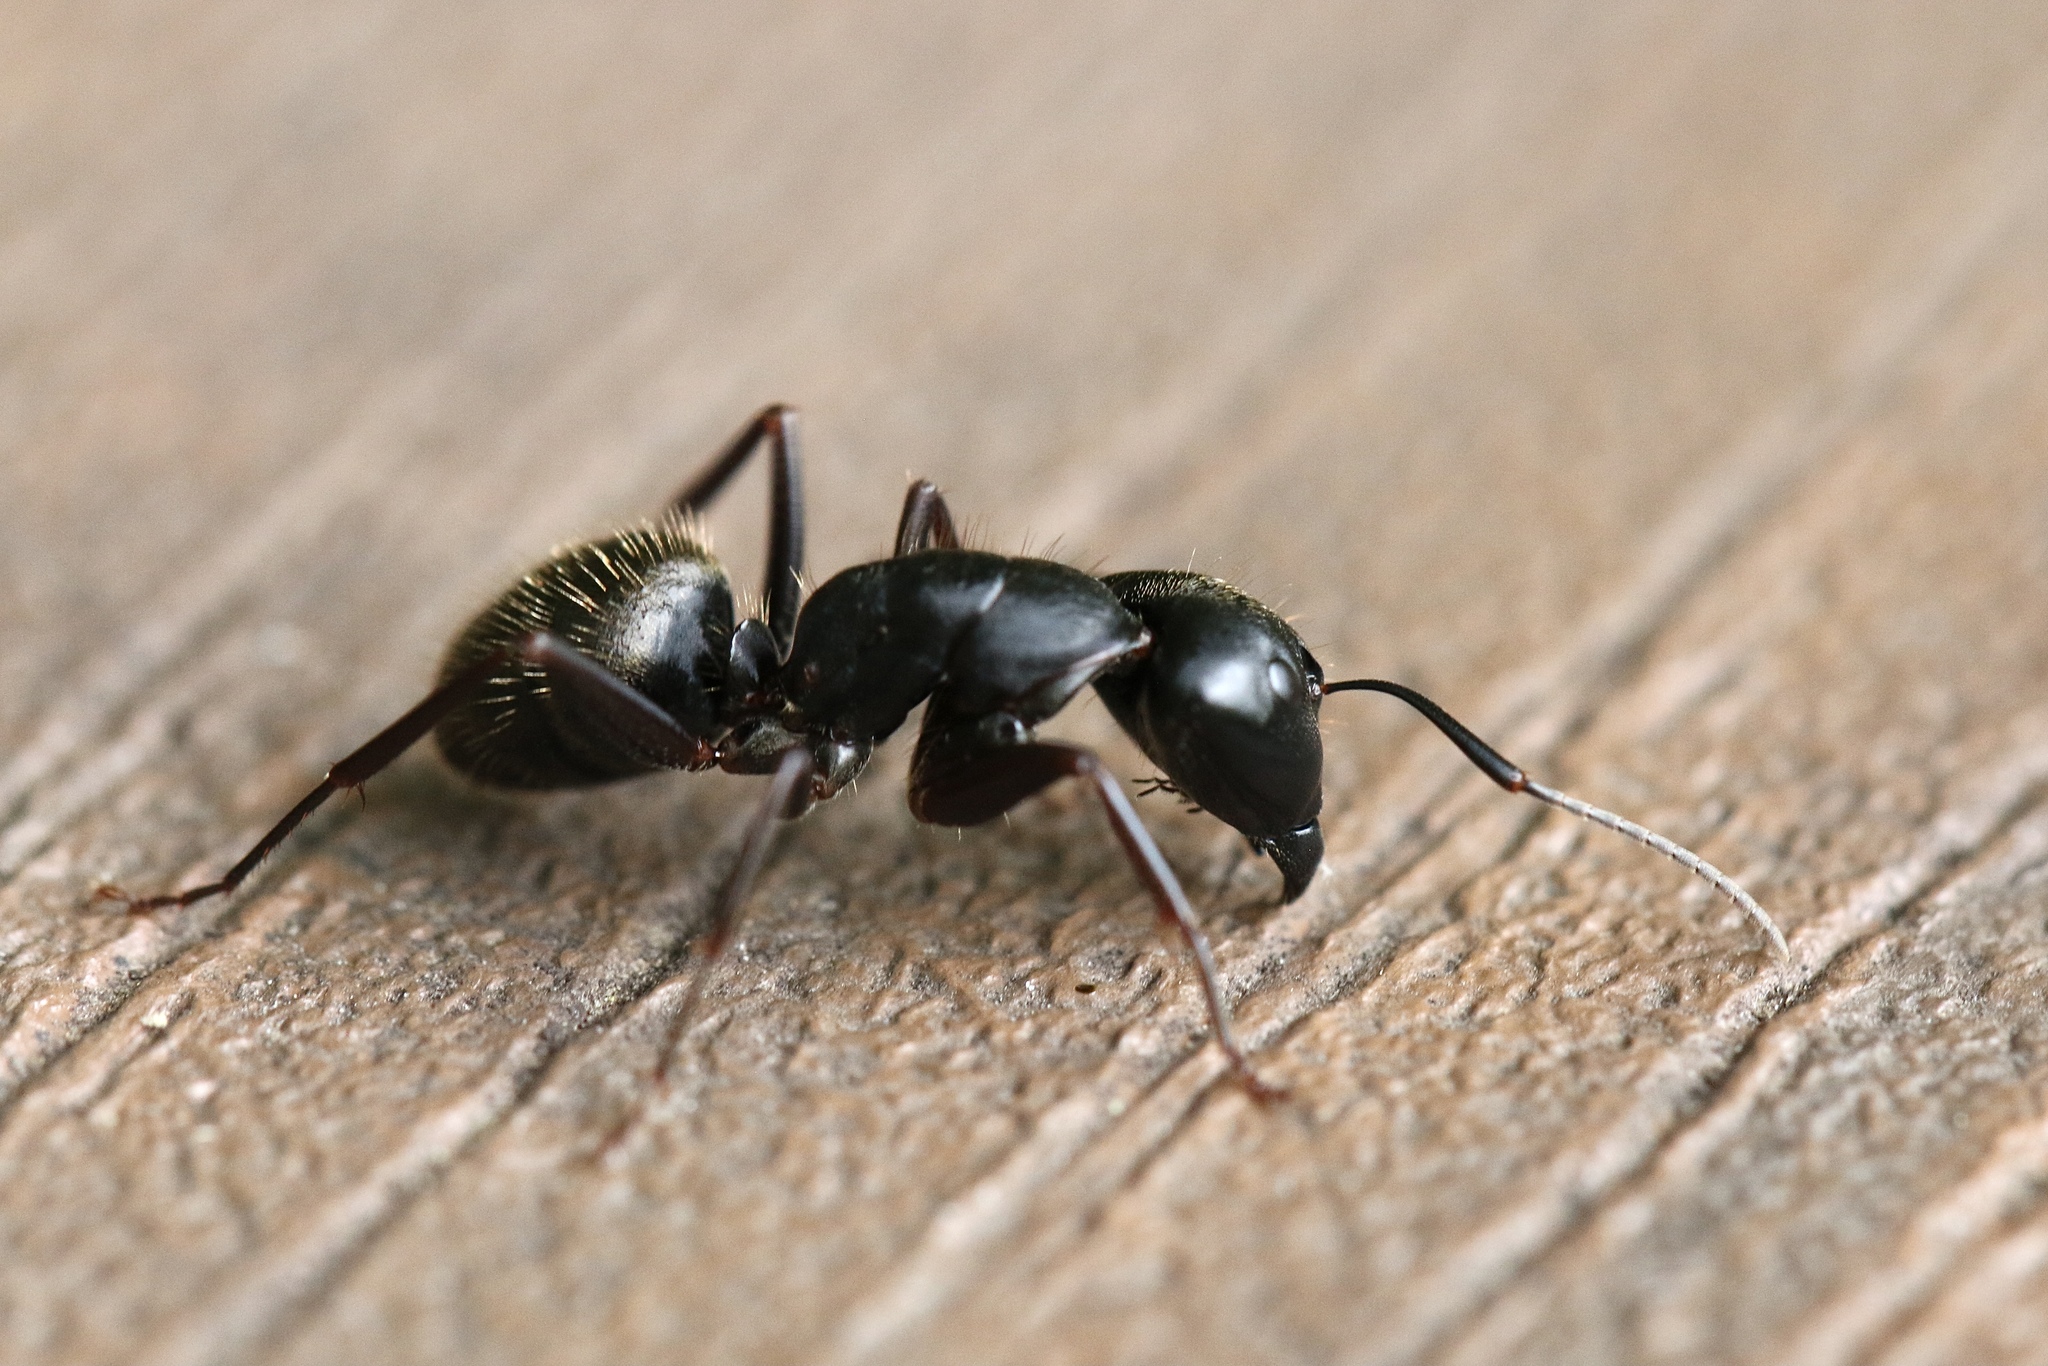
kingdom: Animalia
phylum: Arthropoda
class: Insecta
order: Hymenoptera
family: Formicidae
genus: Camponotus
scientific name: Camponotus pennsylvanicus
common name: Black carpenter ant
